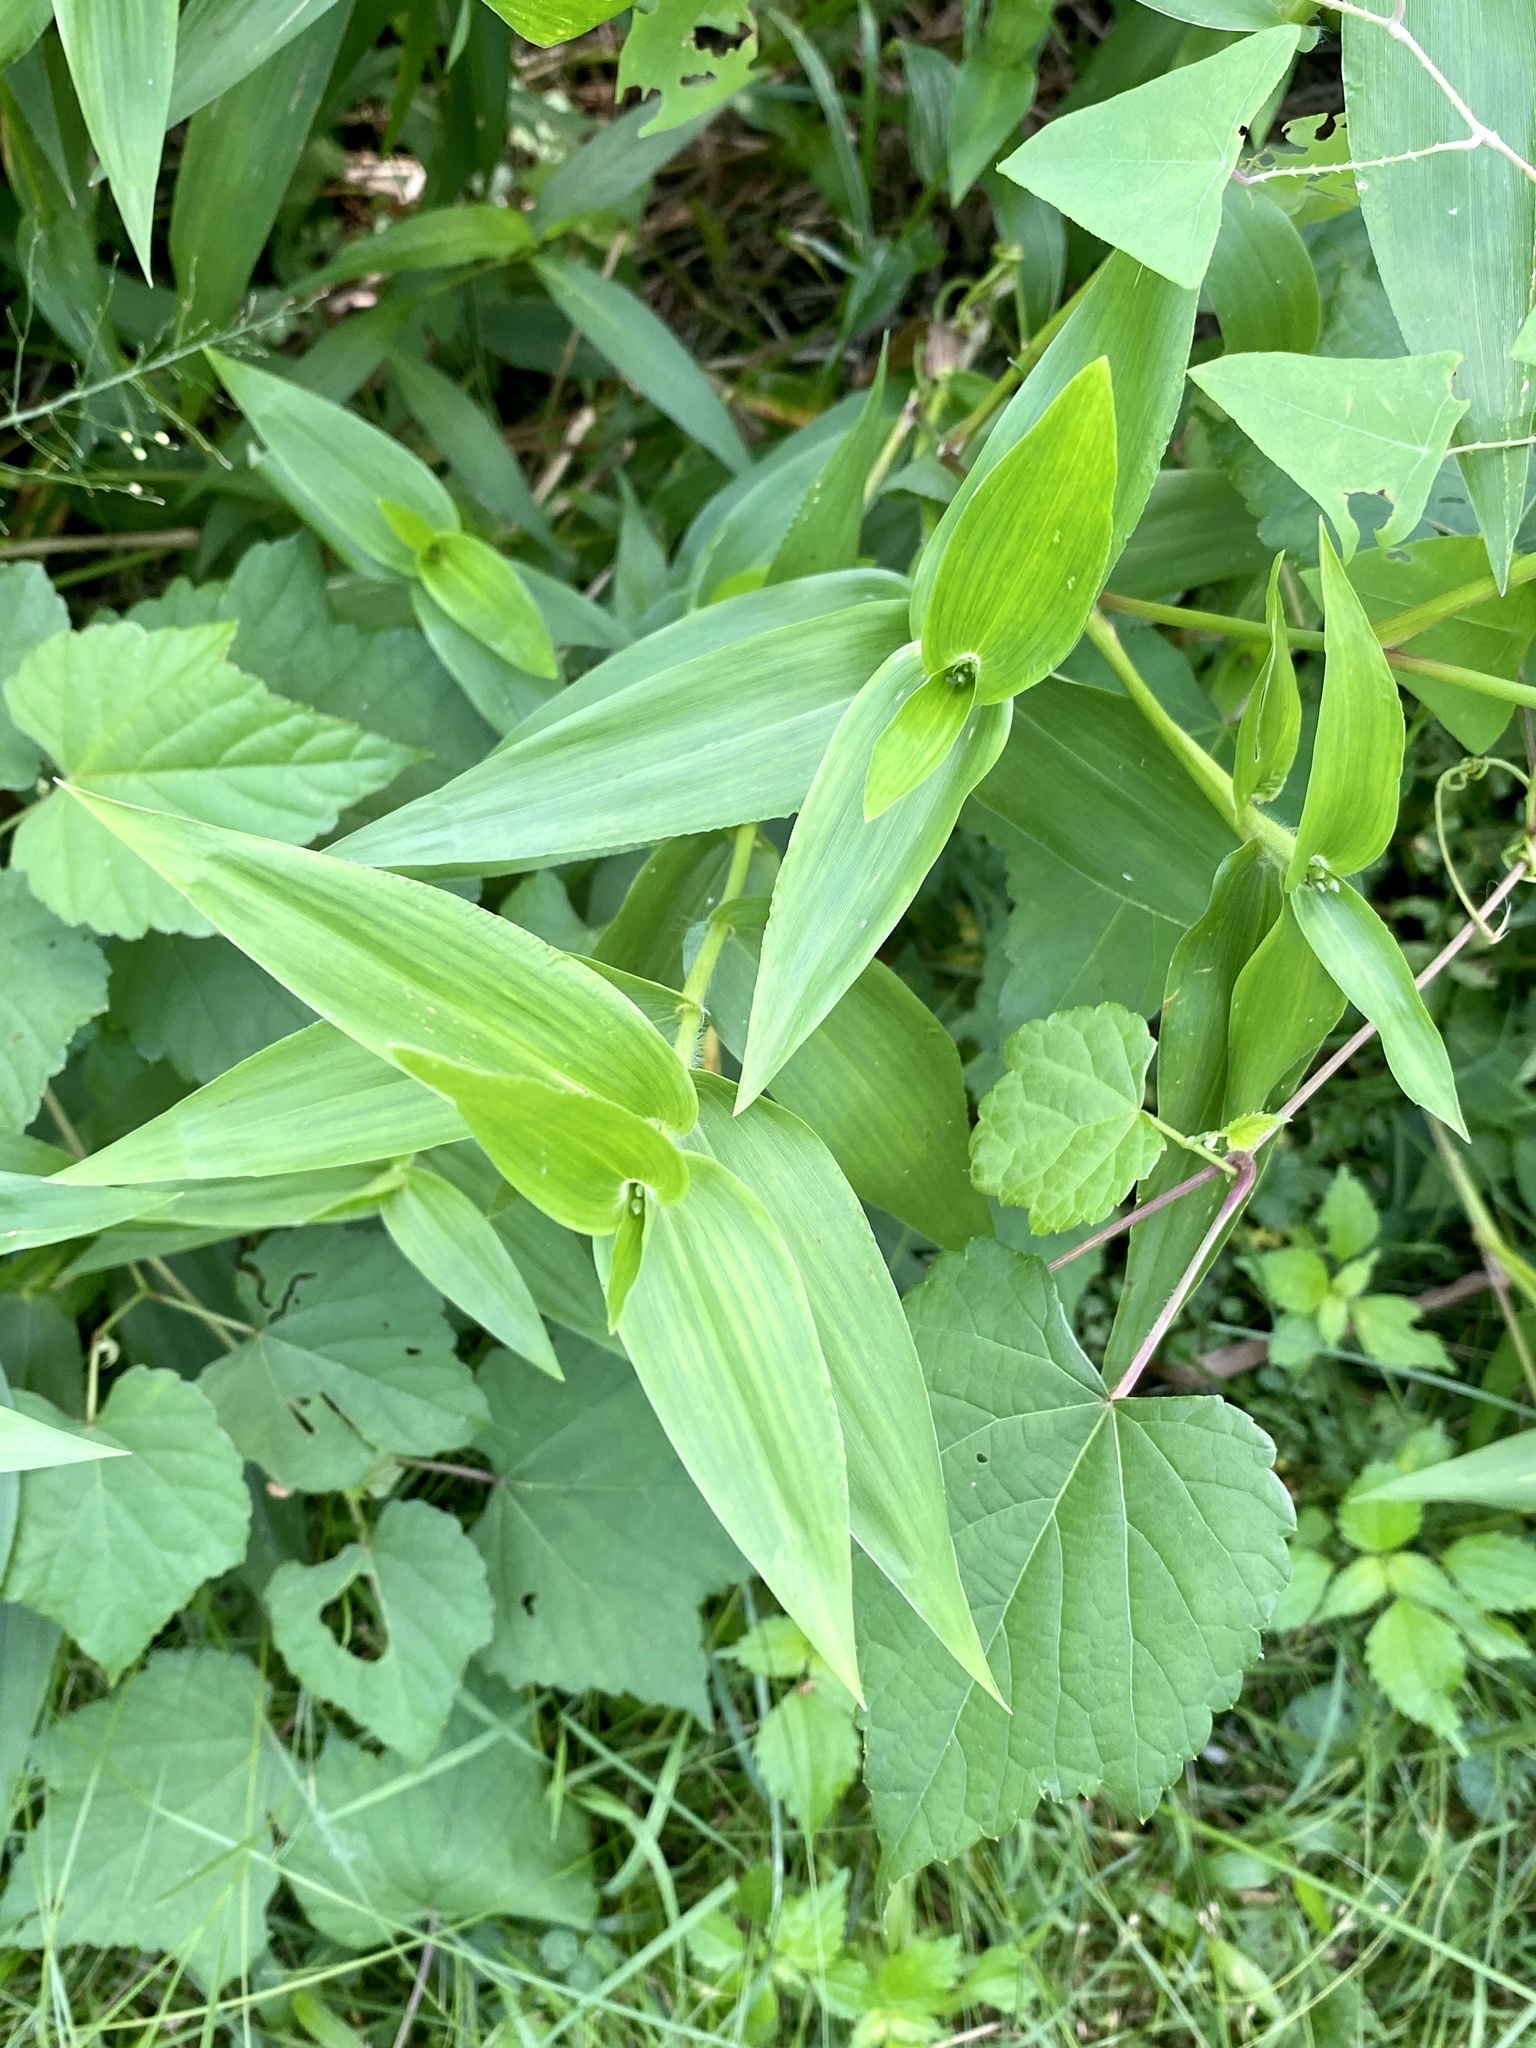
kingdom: Plantae
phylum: Tracheophyta
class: Liliopsida
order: Poales
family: Poaceae
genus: Dichanthelium
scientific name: Dichanthelium clandestinum
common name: Deer-tongue grass
